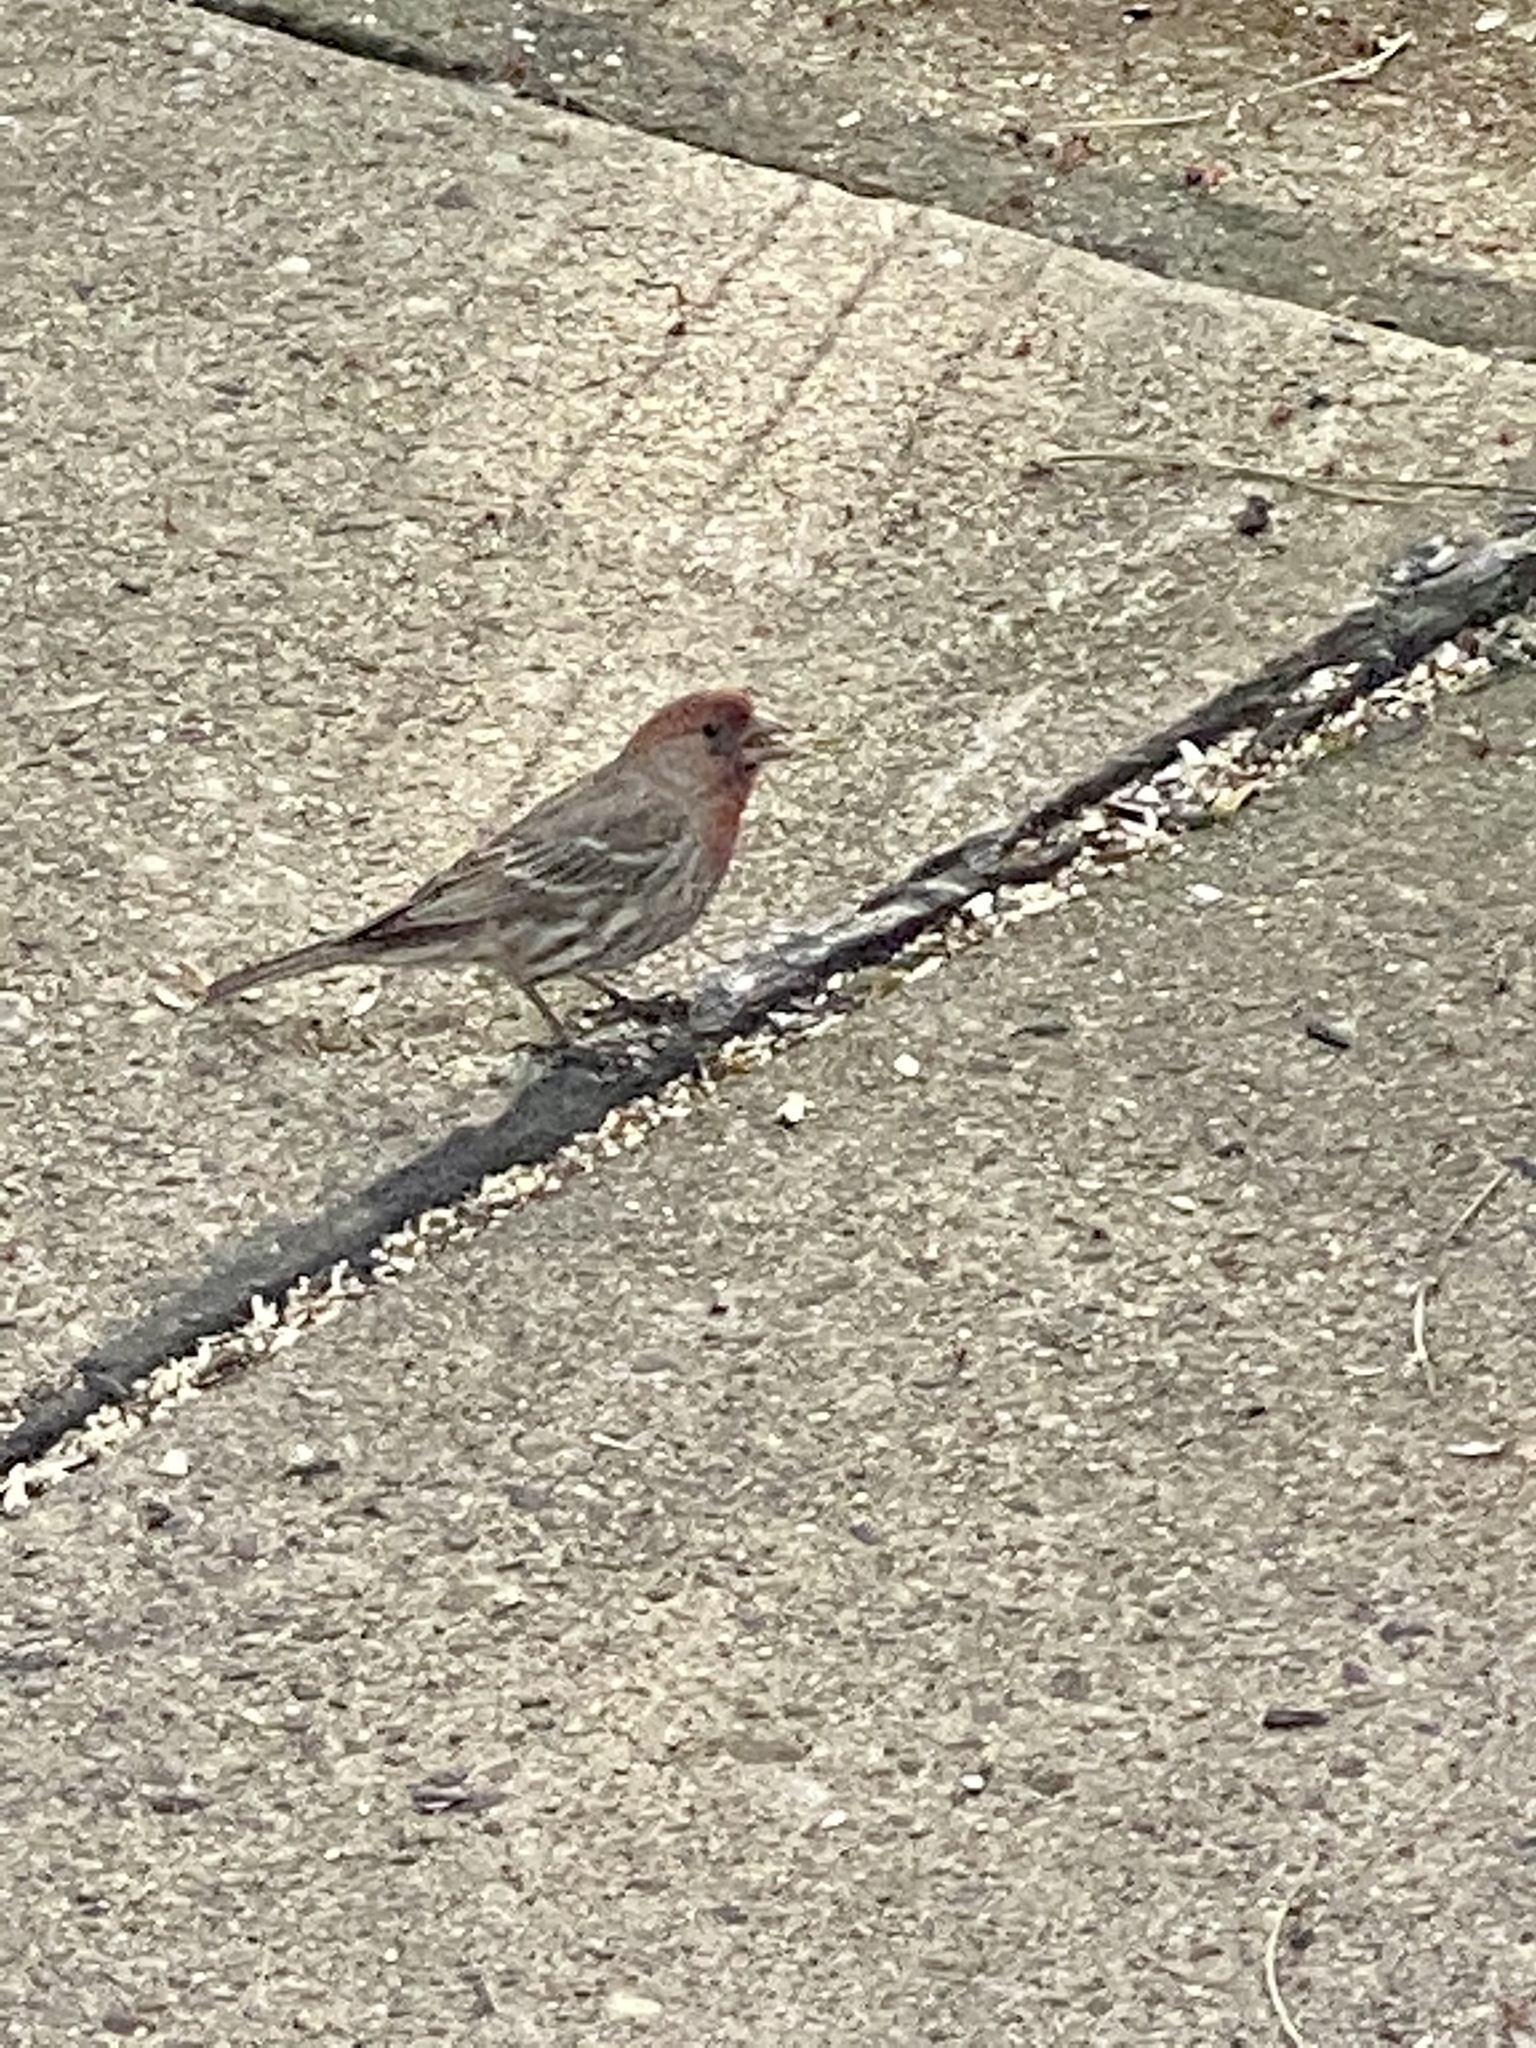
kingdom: Animalia
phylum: Chordata
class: Aves
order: Passeriformes
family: Fringillidae
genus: Haemorhous
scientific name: Haemorhous mexicanus
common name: House finch
